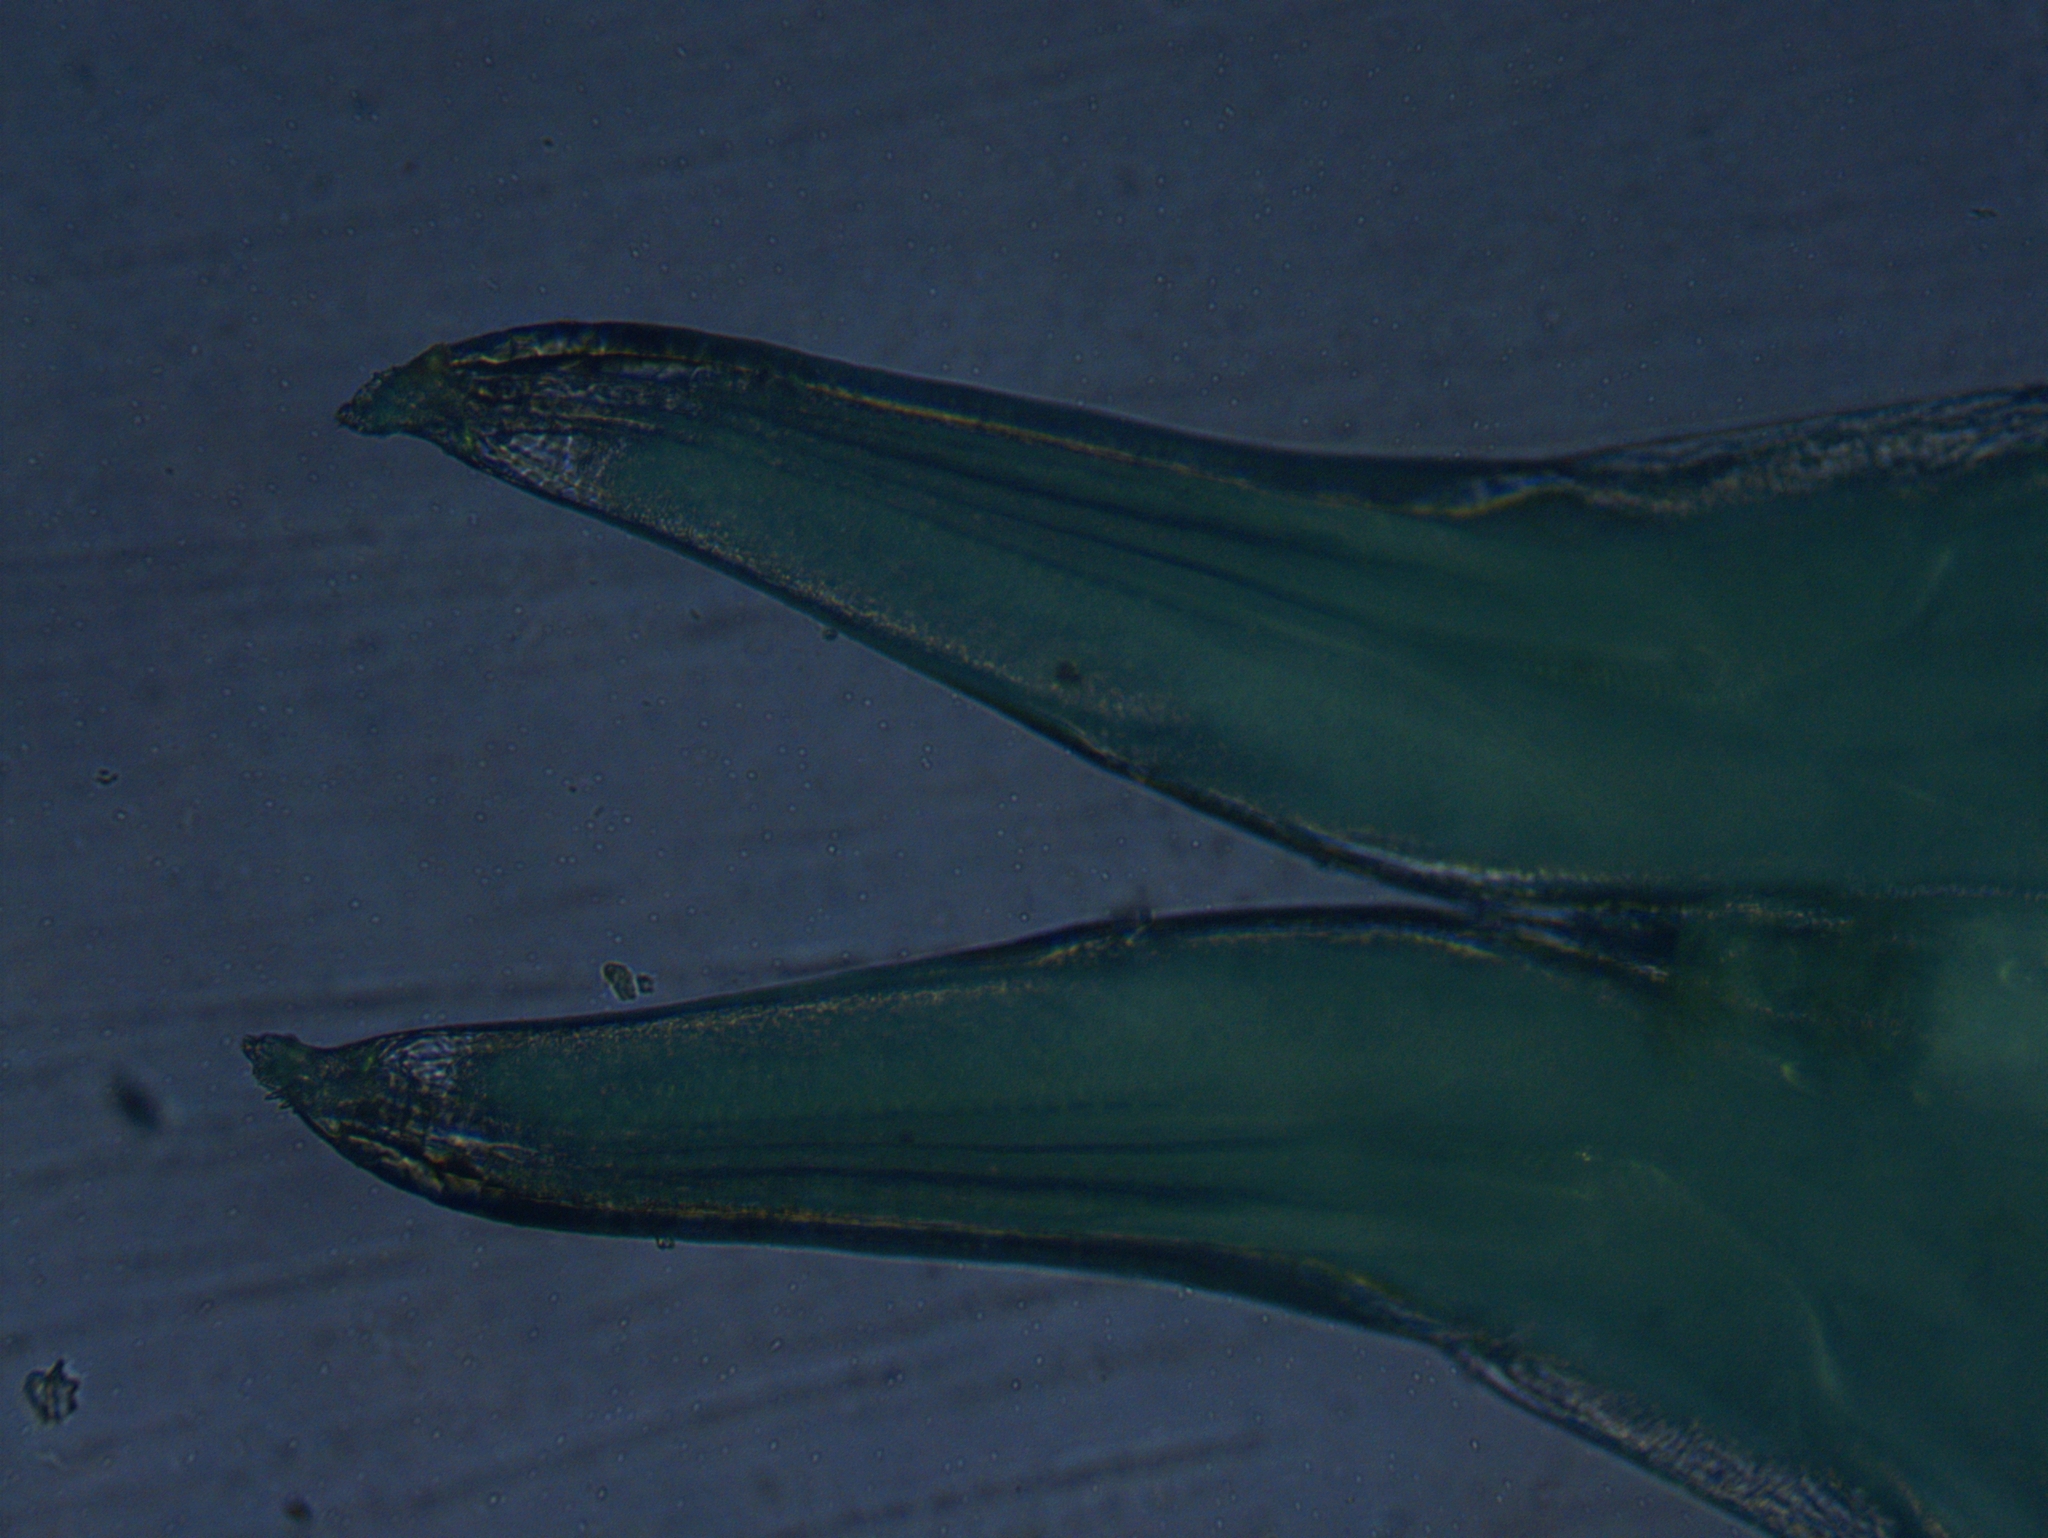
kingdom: Animalia
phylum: Arthropoda
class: Malacostraca
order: Isopoda
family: Philosciidae
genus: Philoscia
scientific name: Philoscia muscorum
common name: Common striped woodlouse
